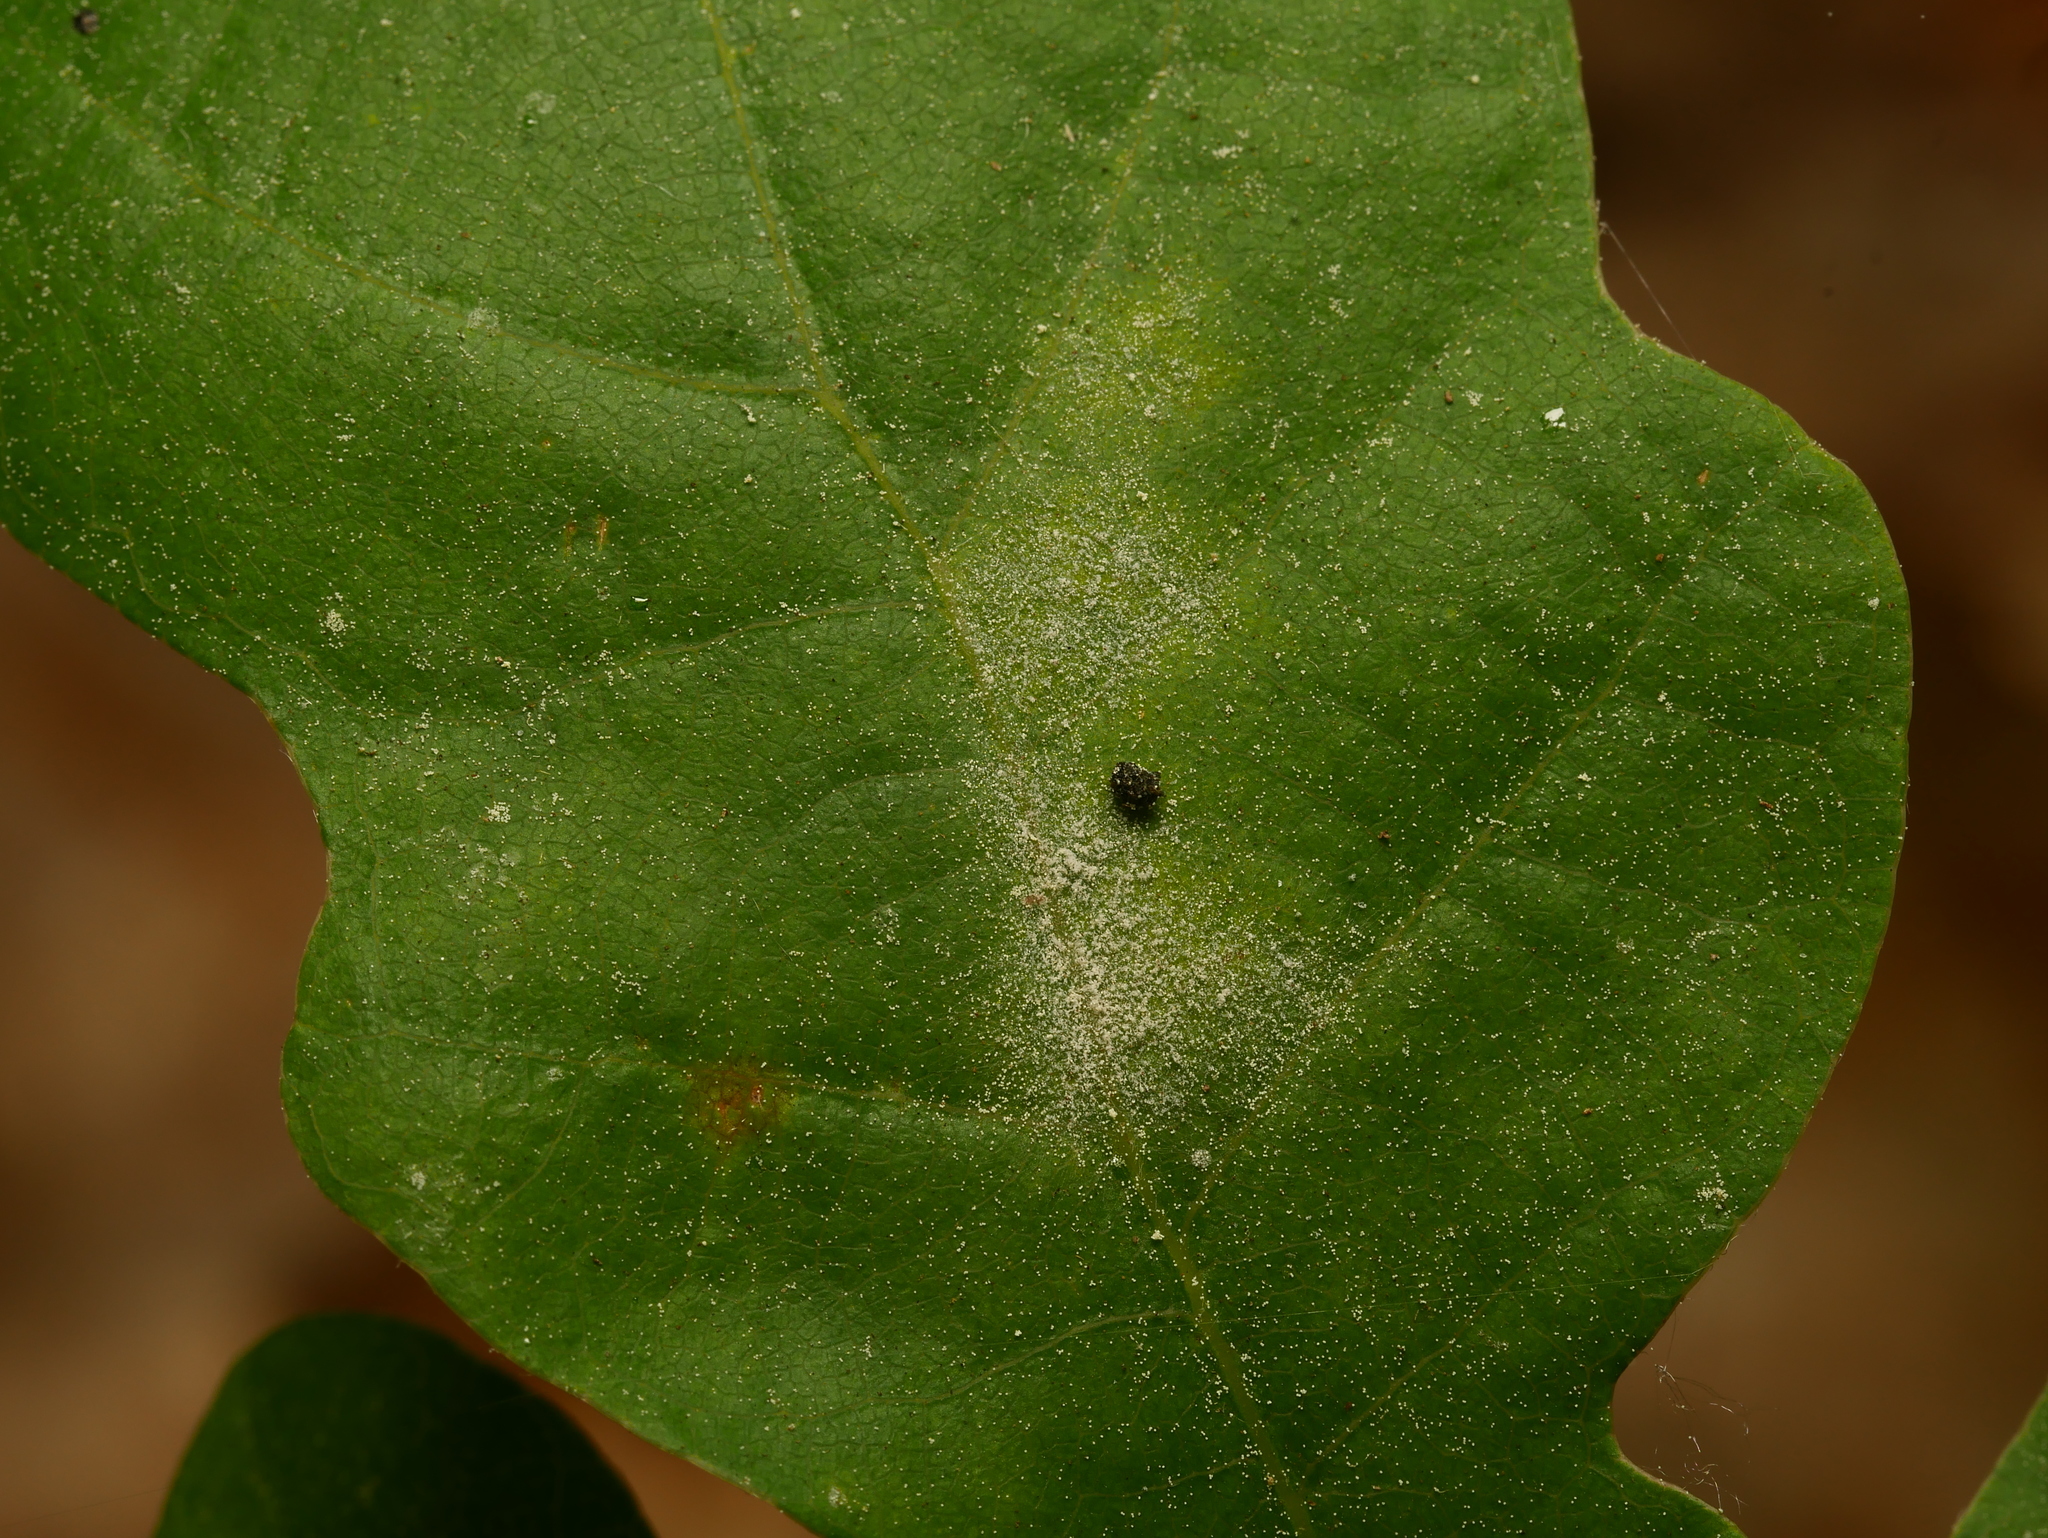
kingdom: Fungi
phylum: Ascomycota
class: Leotiomycetes
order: Helotiales
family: Erysiphaceae
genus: Erysiphe
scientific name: Erysiphe
